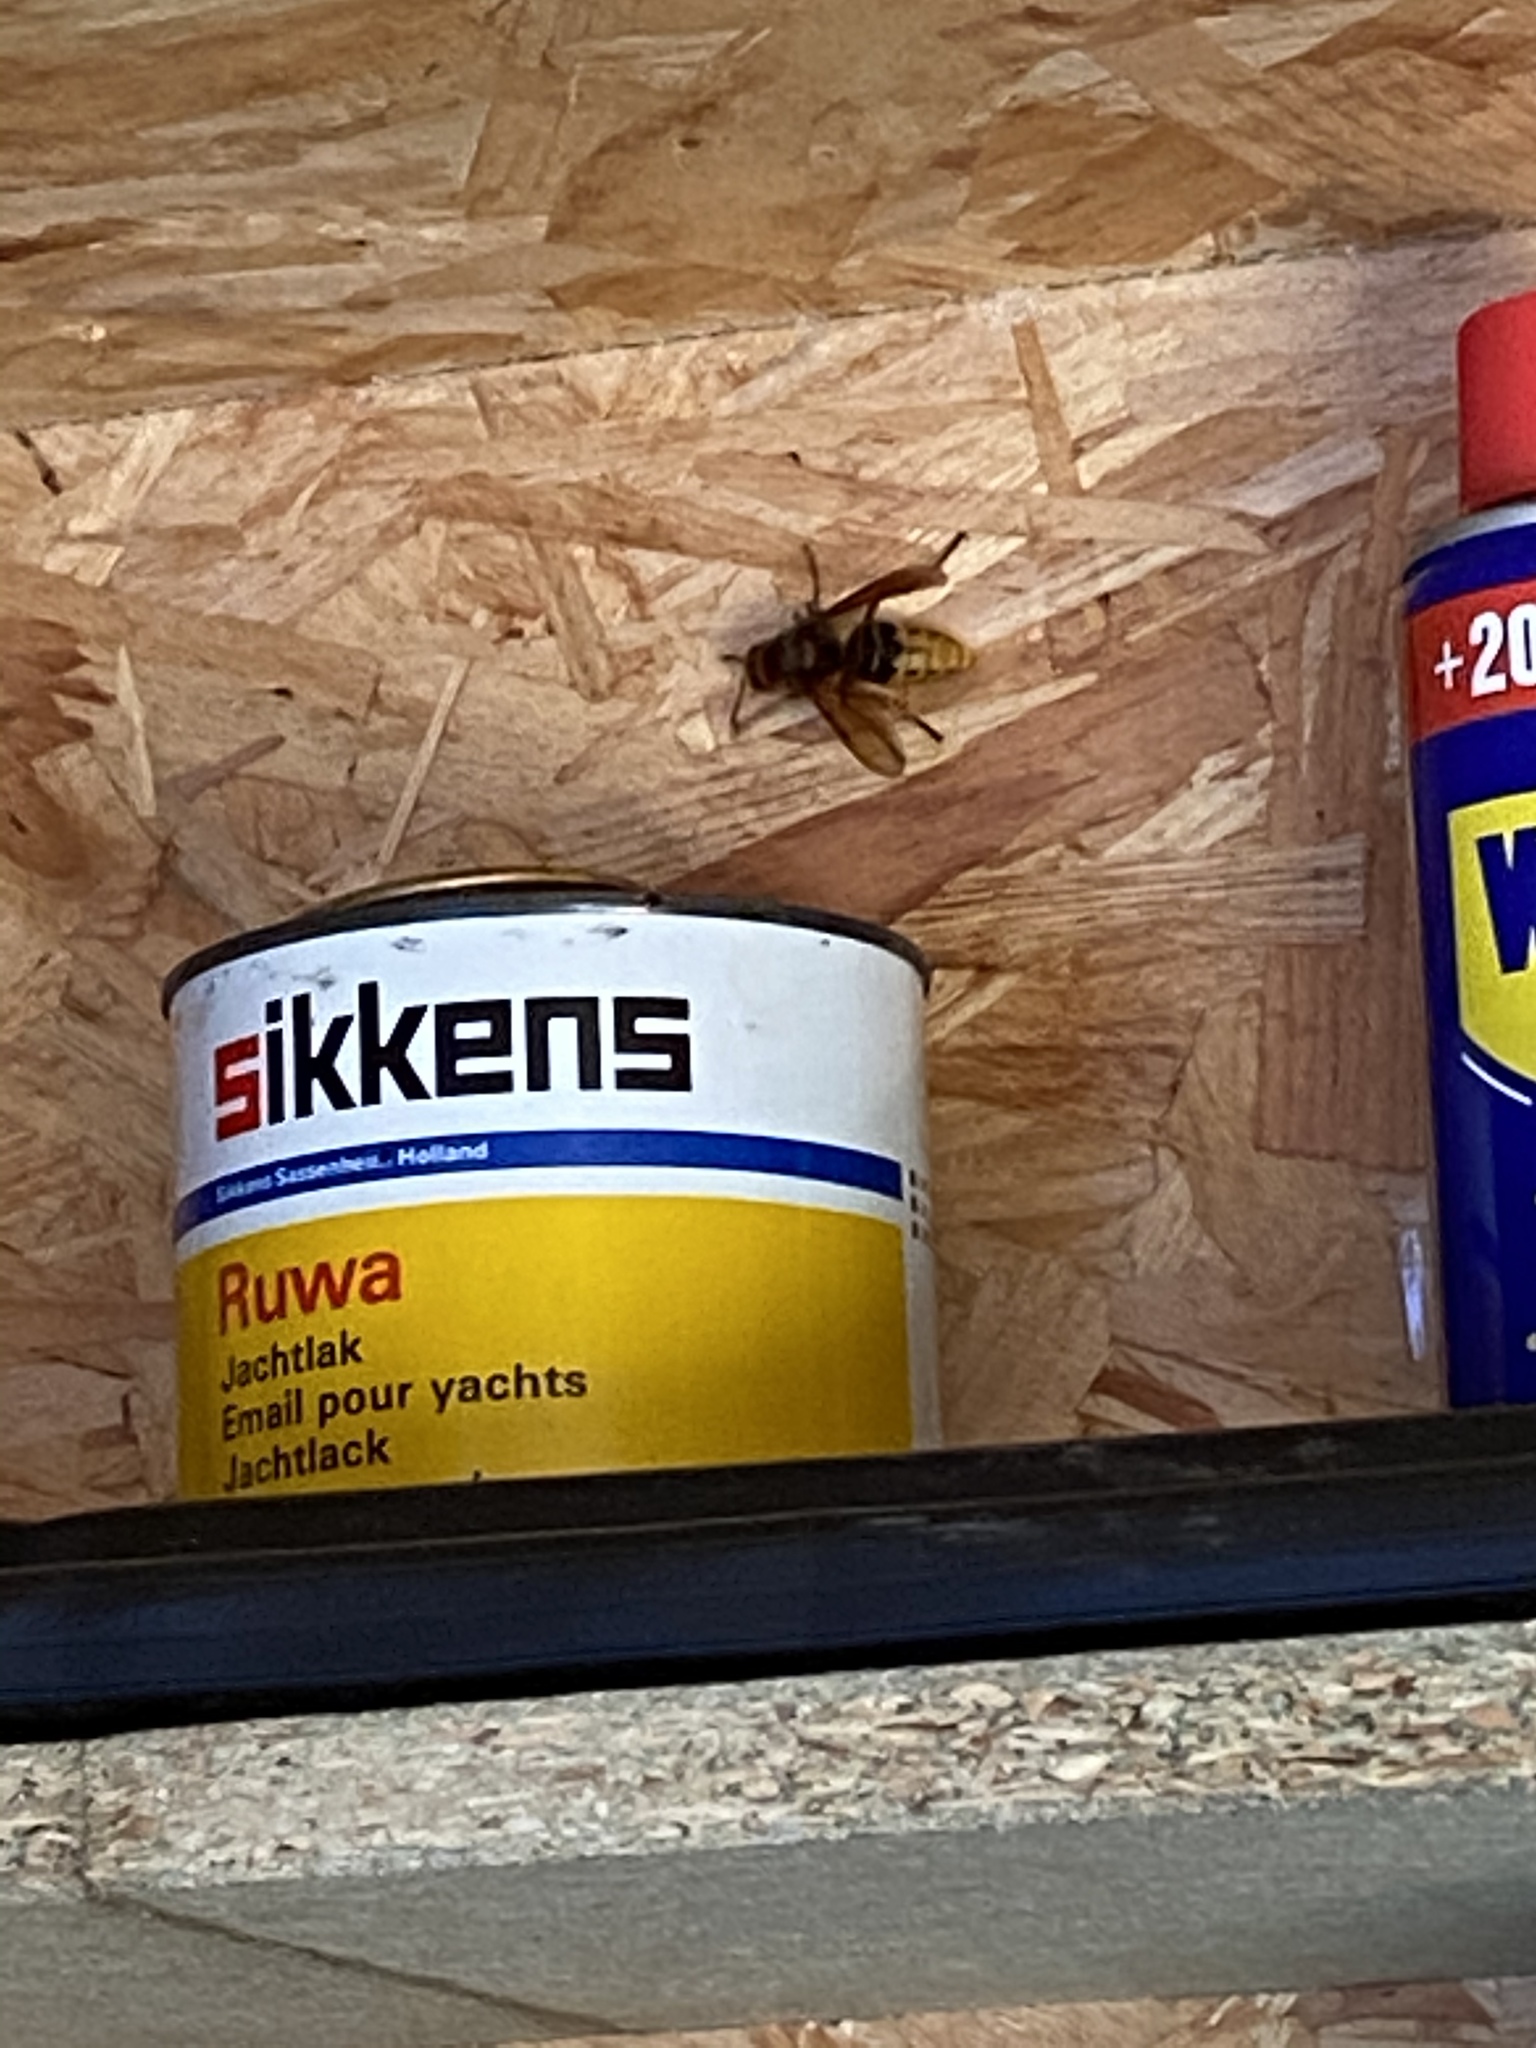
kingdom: Animalia
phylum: Arthropoda
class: Insecta
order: Hymenoptera
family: Vespidae
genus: Vespa
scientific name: Vespa crabro
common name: Hornet
